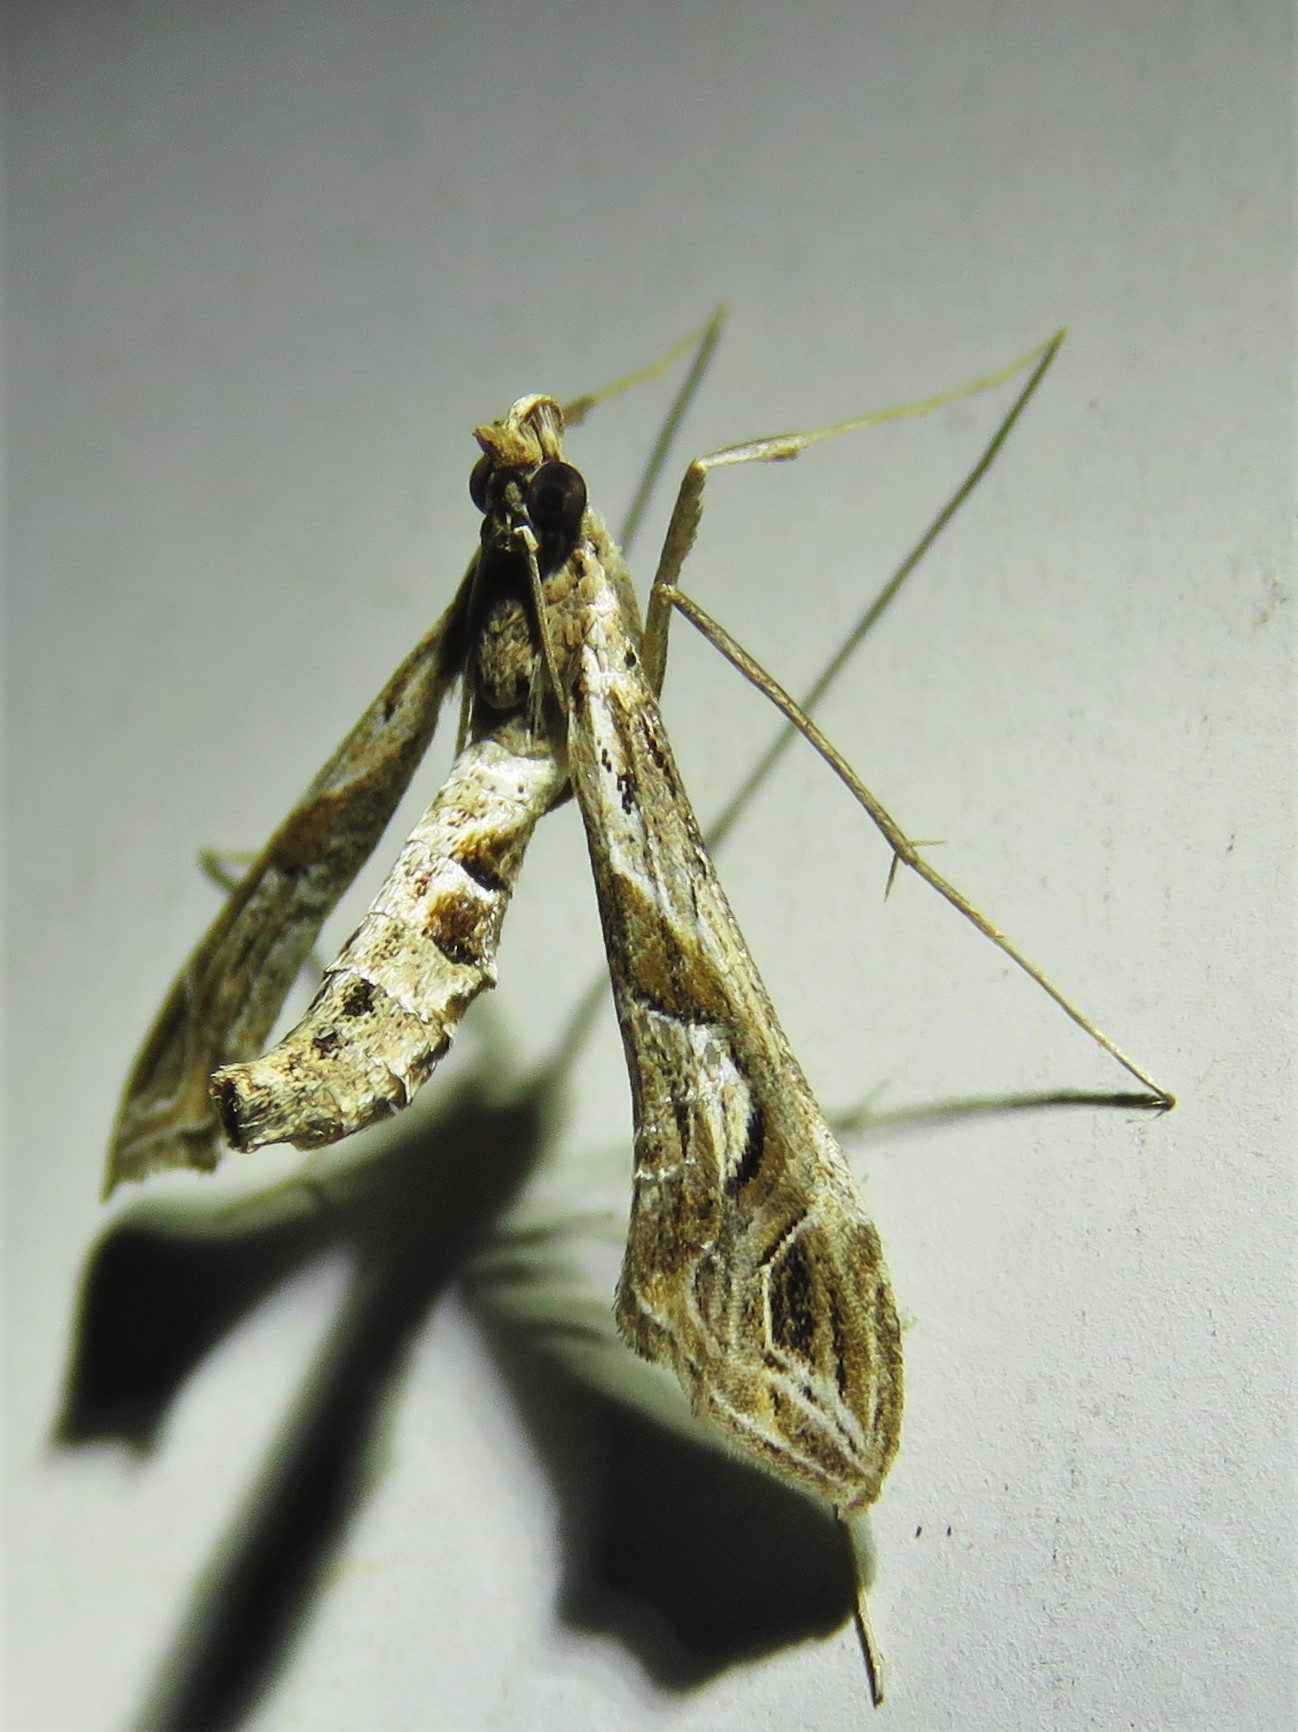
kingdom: Animalia
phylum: Arthropoda
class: Insecta
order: Lepidoptera
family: Crambidae
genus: Lineodes
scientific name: Lineodes integra
